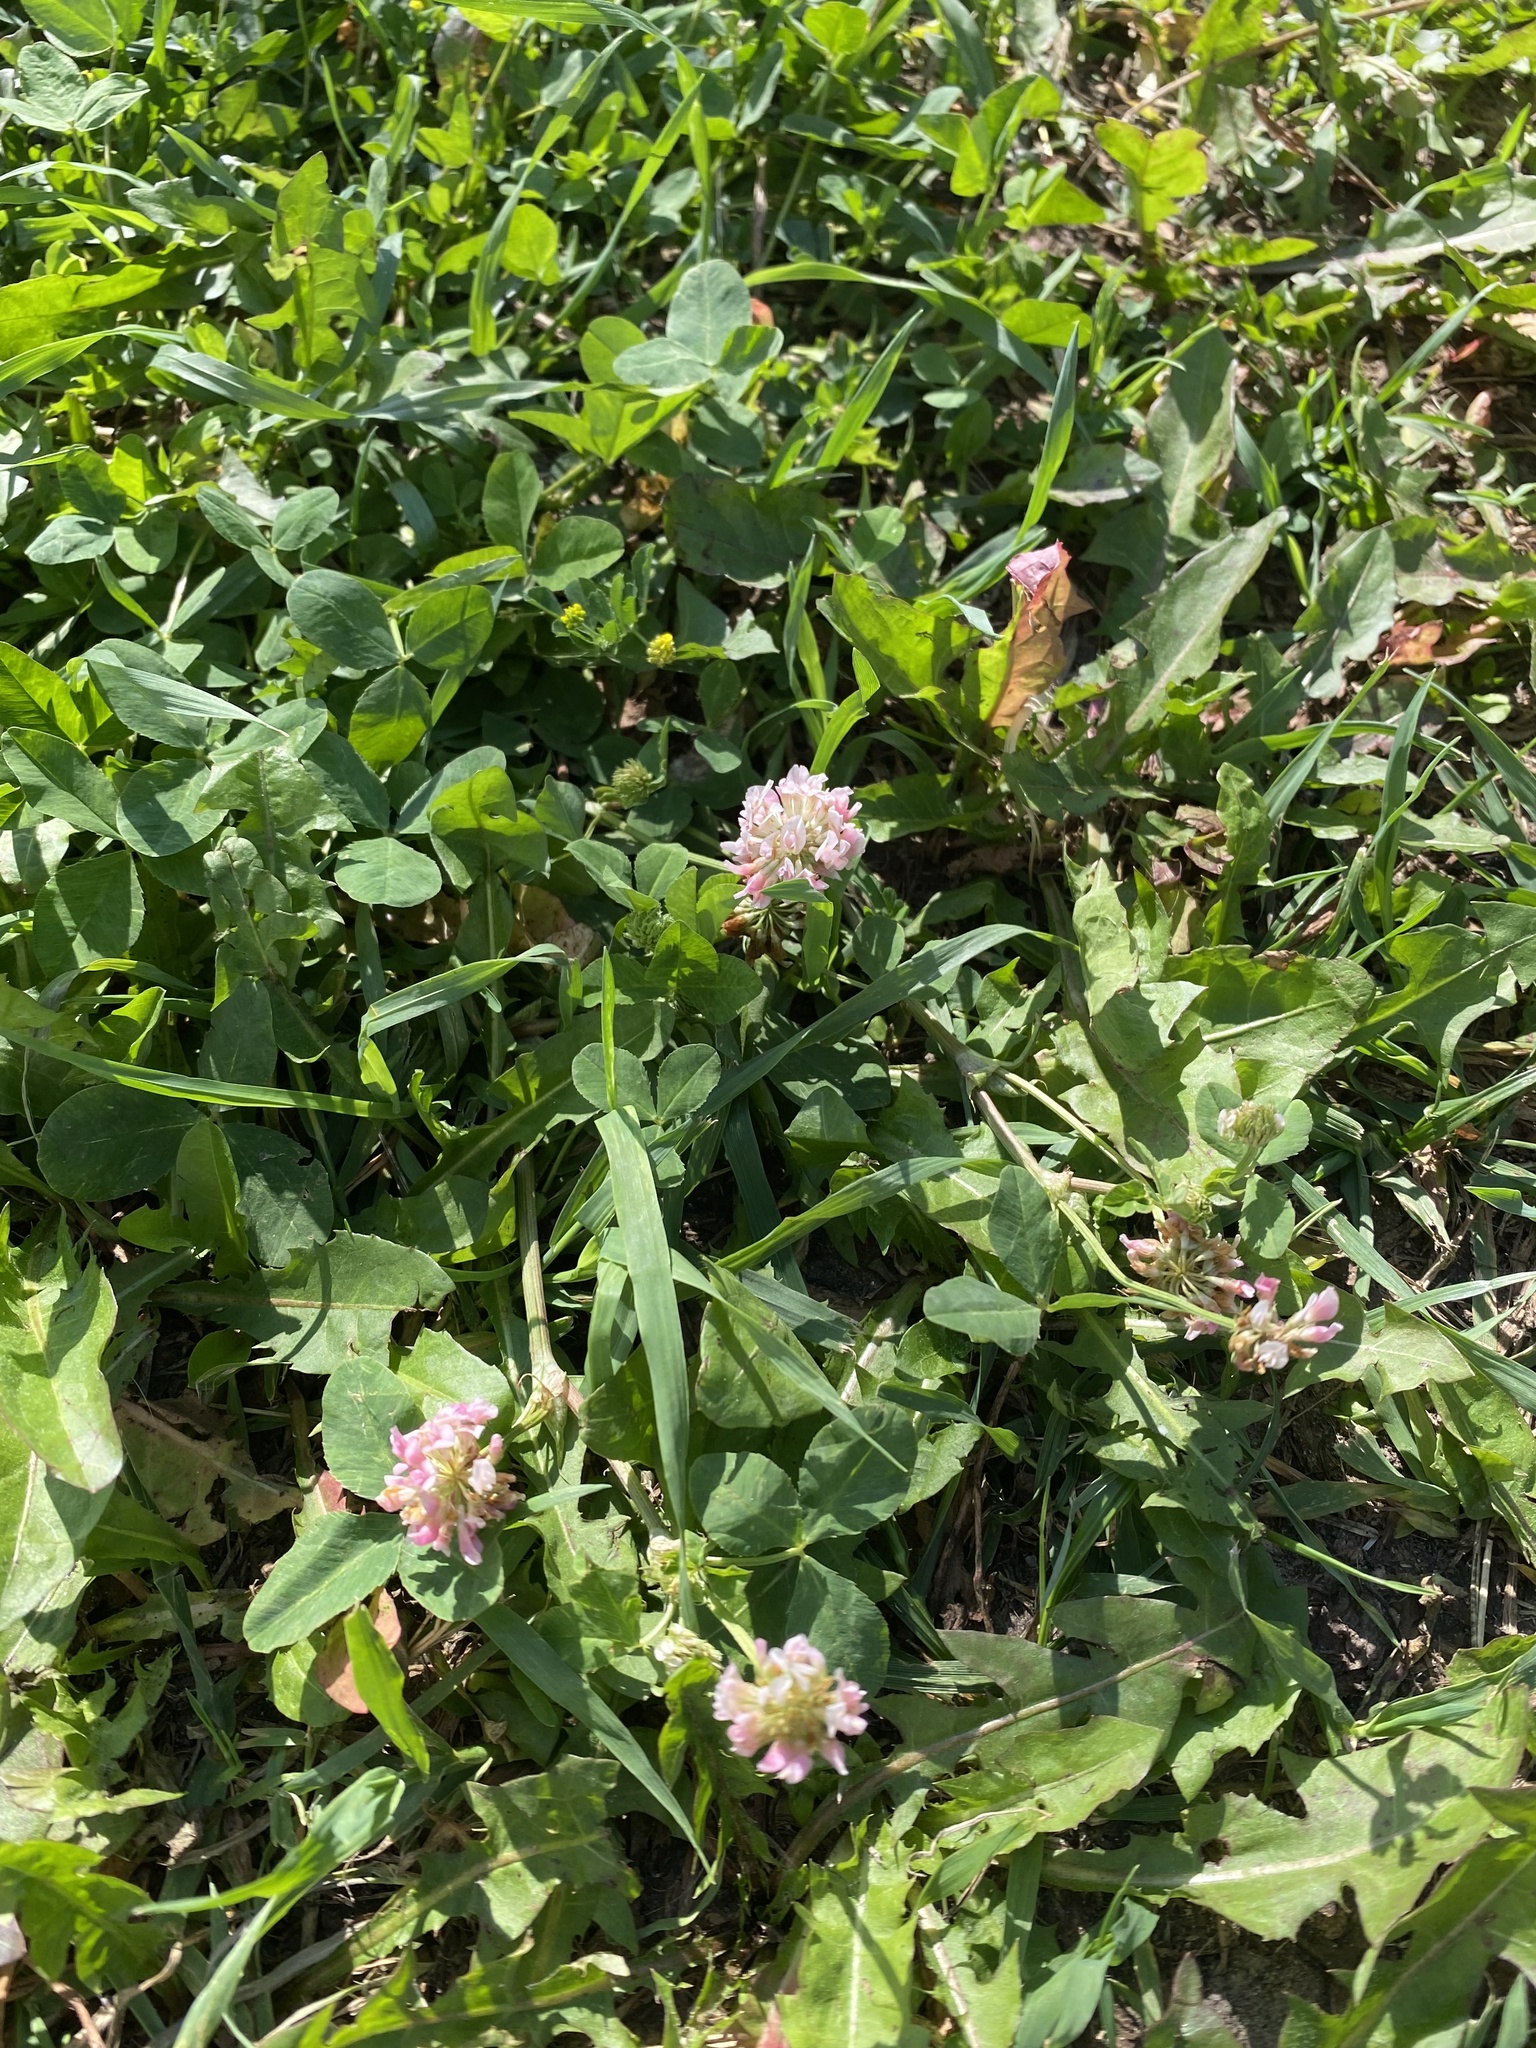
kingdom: Plantae
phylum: Tracheophyta
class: Magnoliopsida
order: Fabales
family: Fabaceae
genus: Trifolium
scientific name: Trifolium hybridum
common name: Alsike clover
